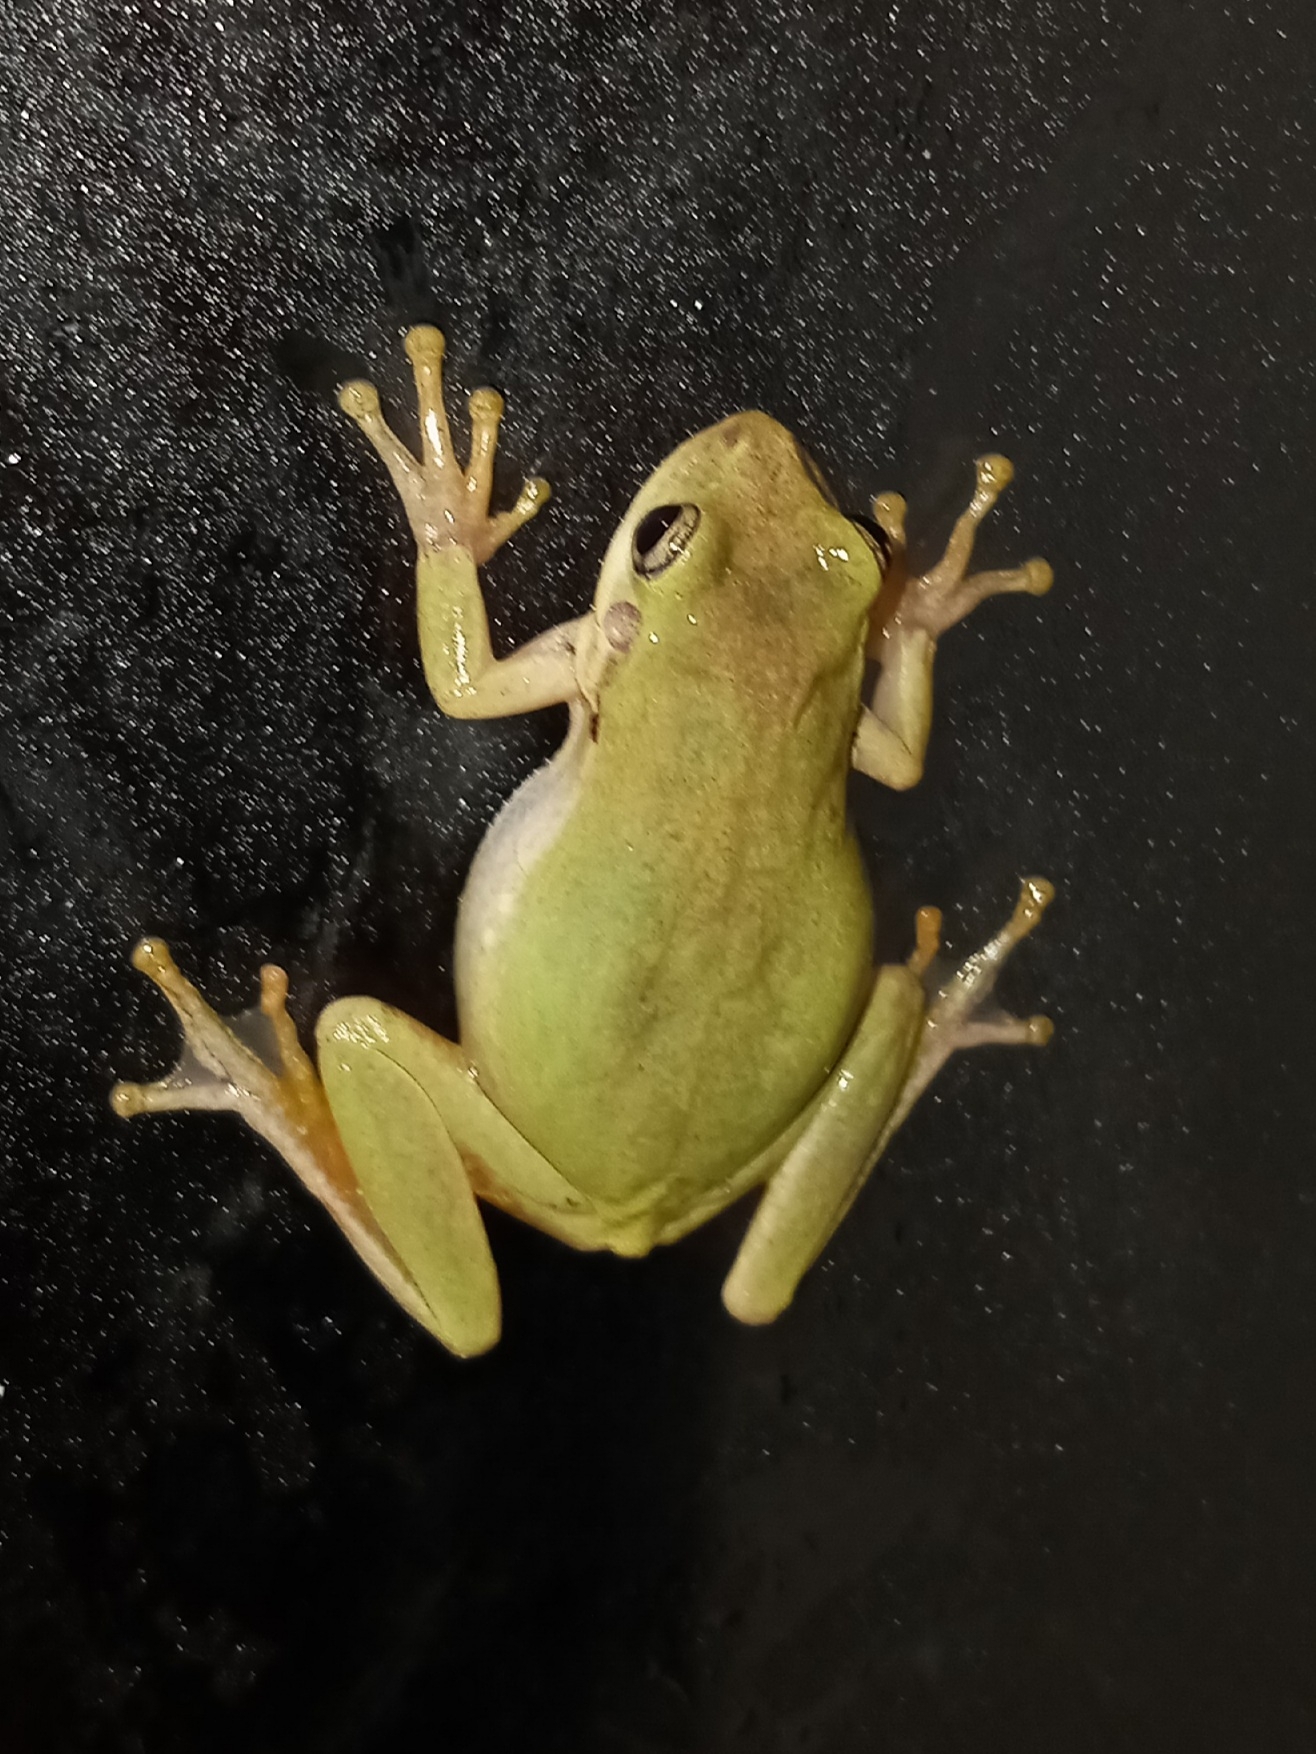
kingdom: Animalia
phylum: Chordata
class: Amphibia
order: Anura
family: Hylidae
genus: Dryophytes
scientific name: Dryophytes squirellus
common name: Squirrel treefrog
